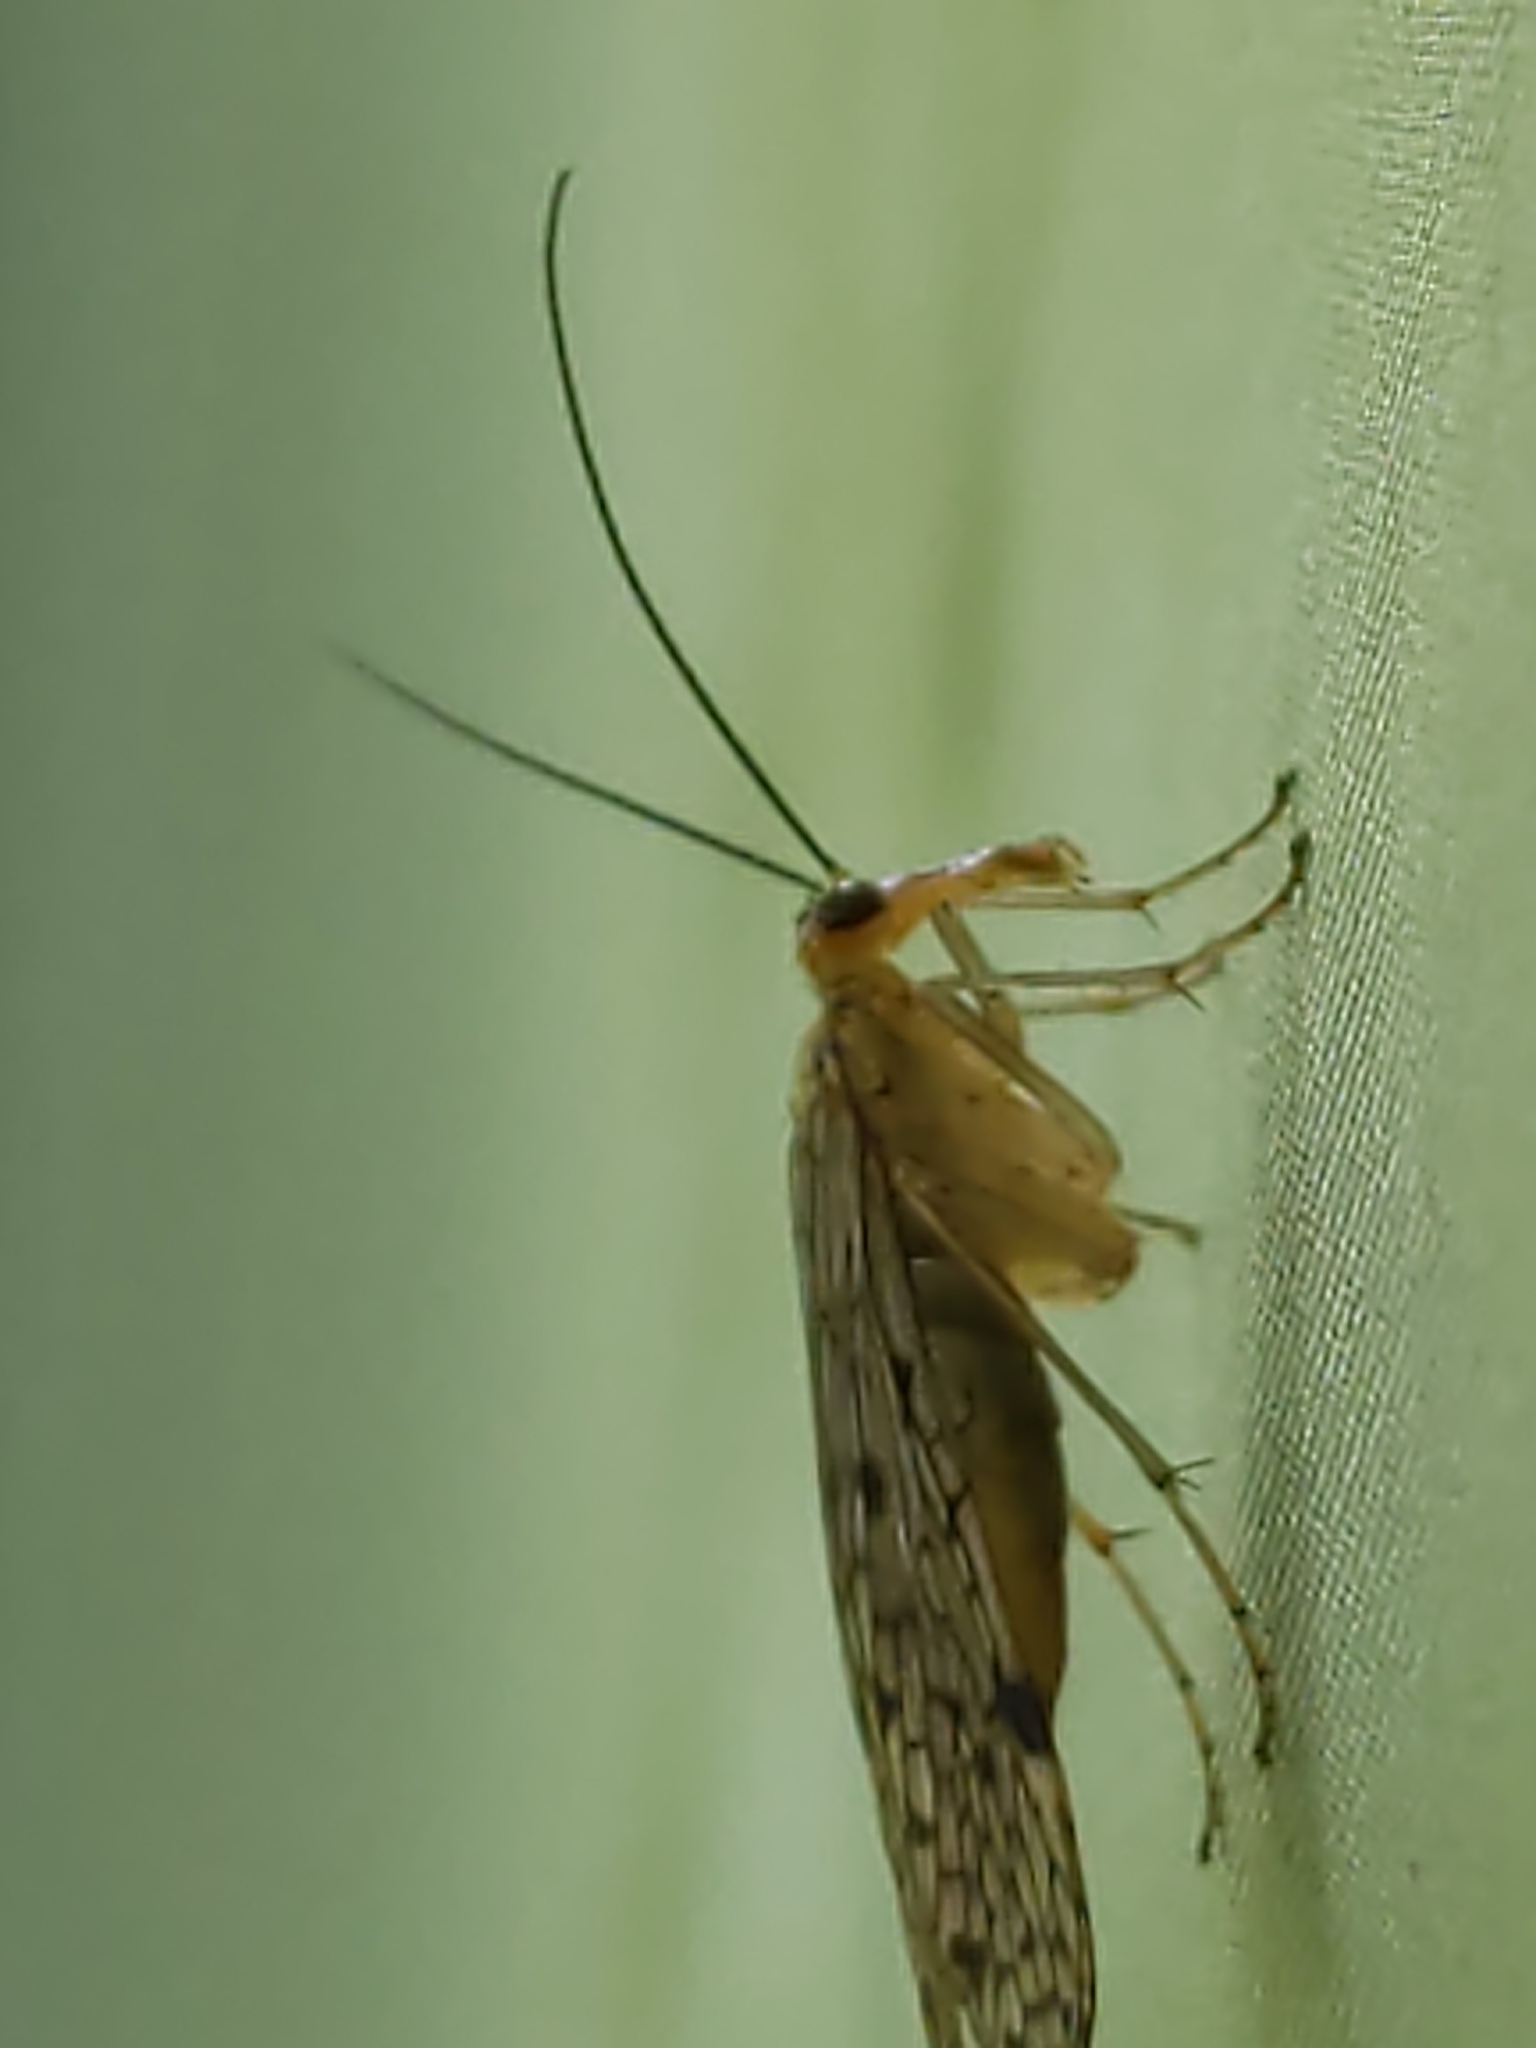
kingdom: Animalia
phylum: Arthropoda
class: Insecta
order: Mecoptera
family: Panorpidae
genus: Panorpa
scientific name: Panorpa
